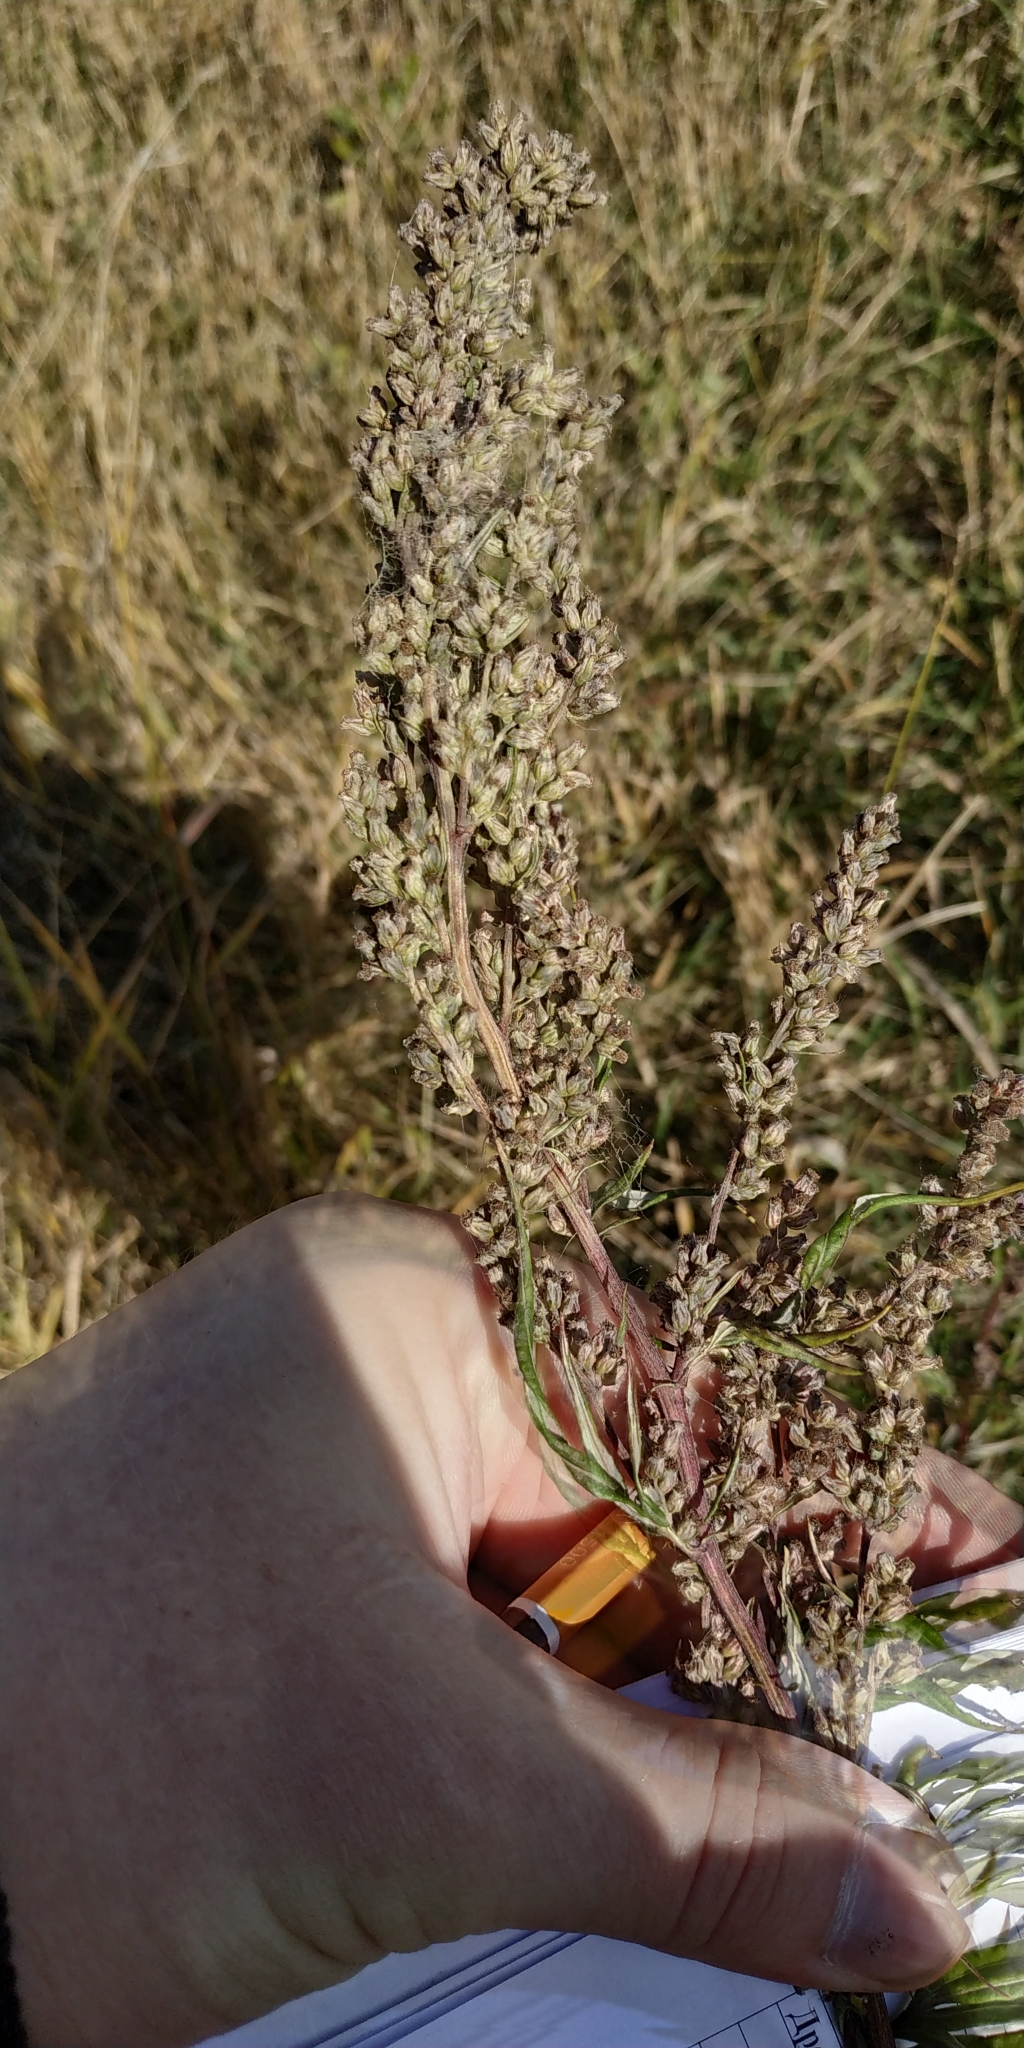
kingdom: Plantae
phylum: Tracheophyta
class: Magnoliopsida
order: Asterales
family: Asteraceae
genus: Artemisia
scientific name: Artemisia vulgaris
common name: Mugwort
